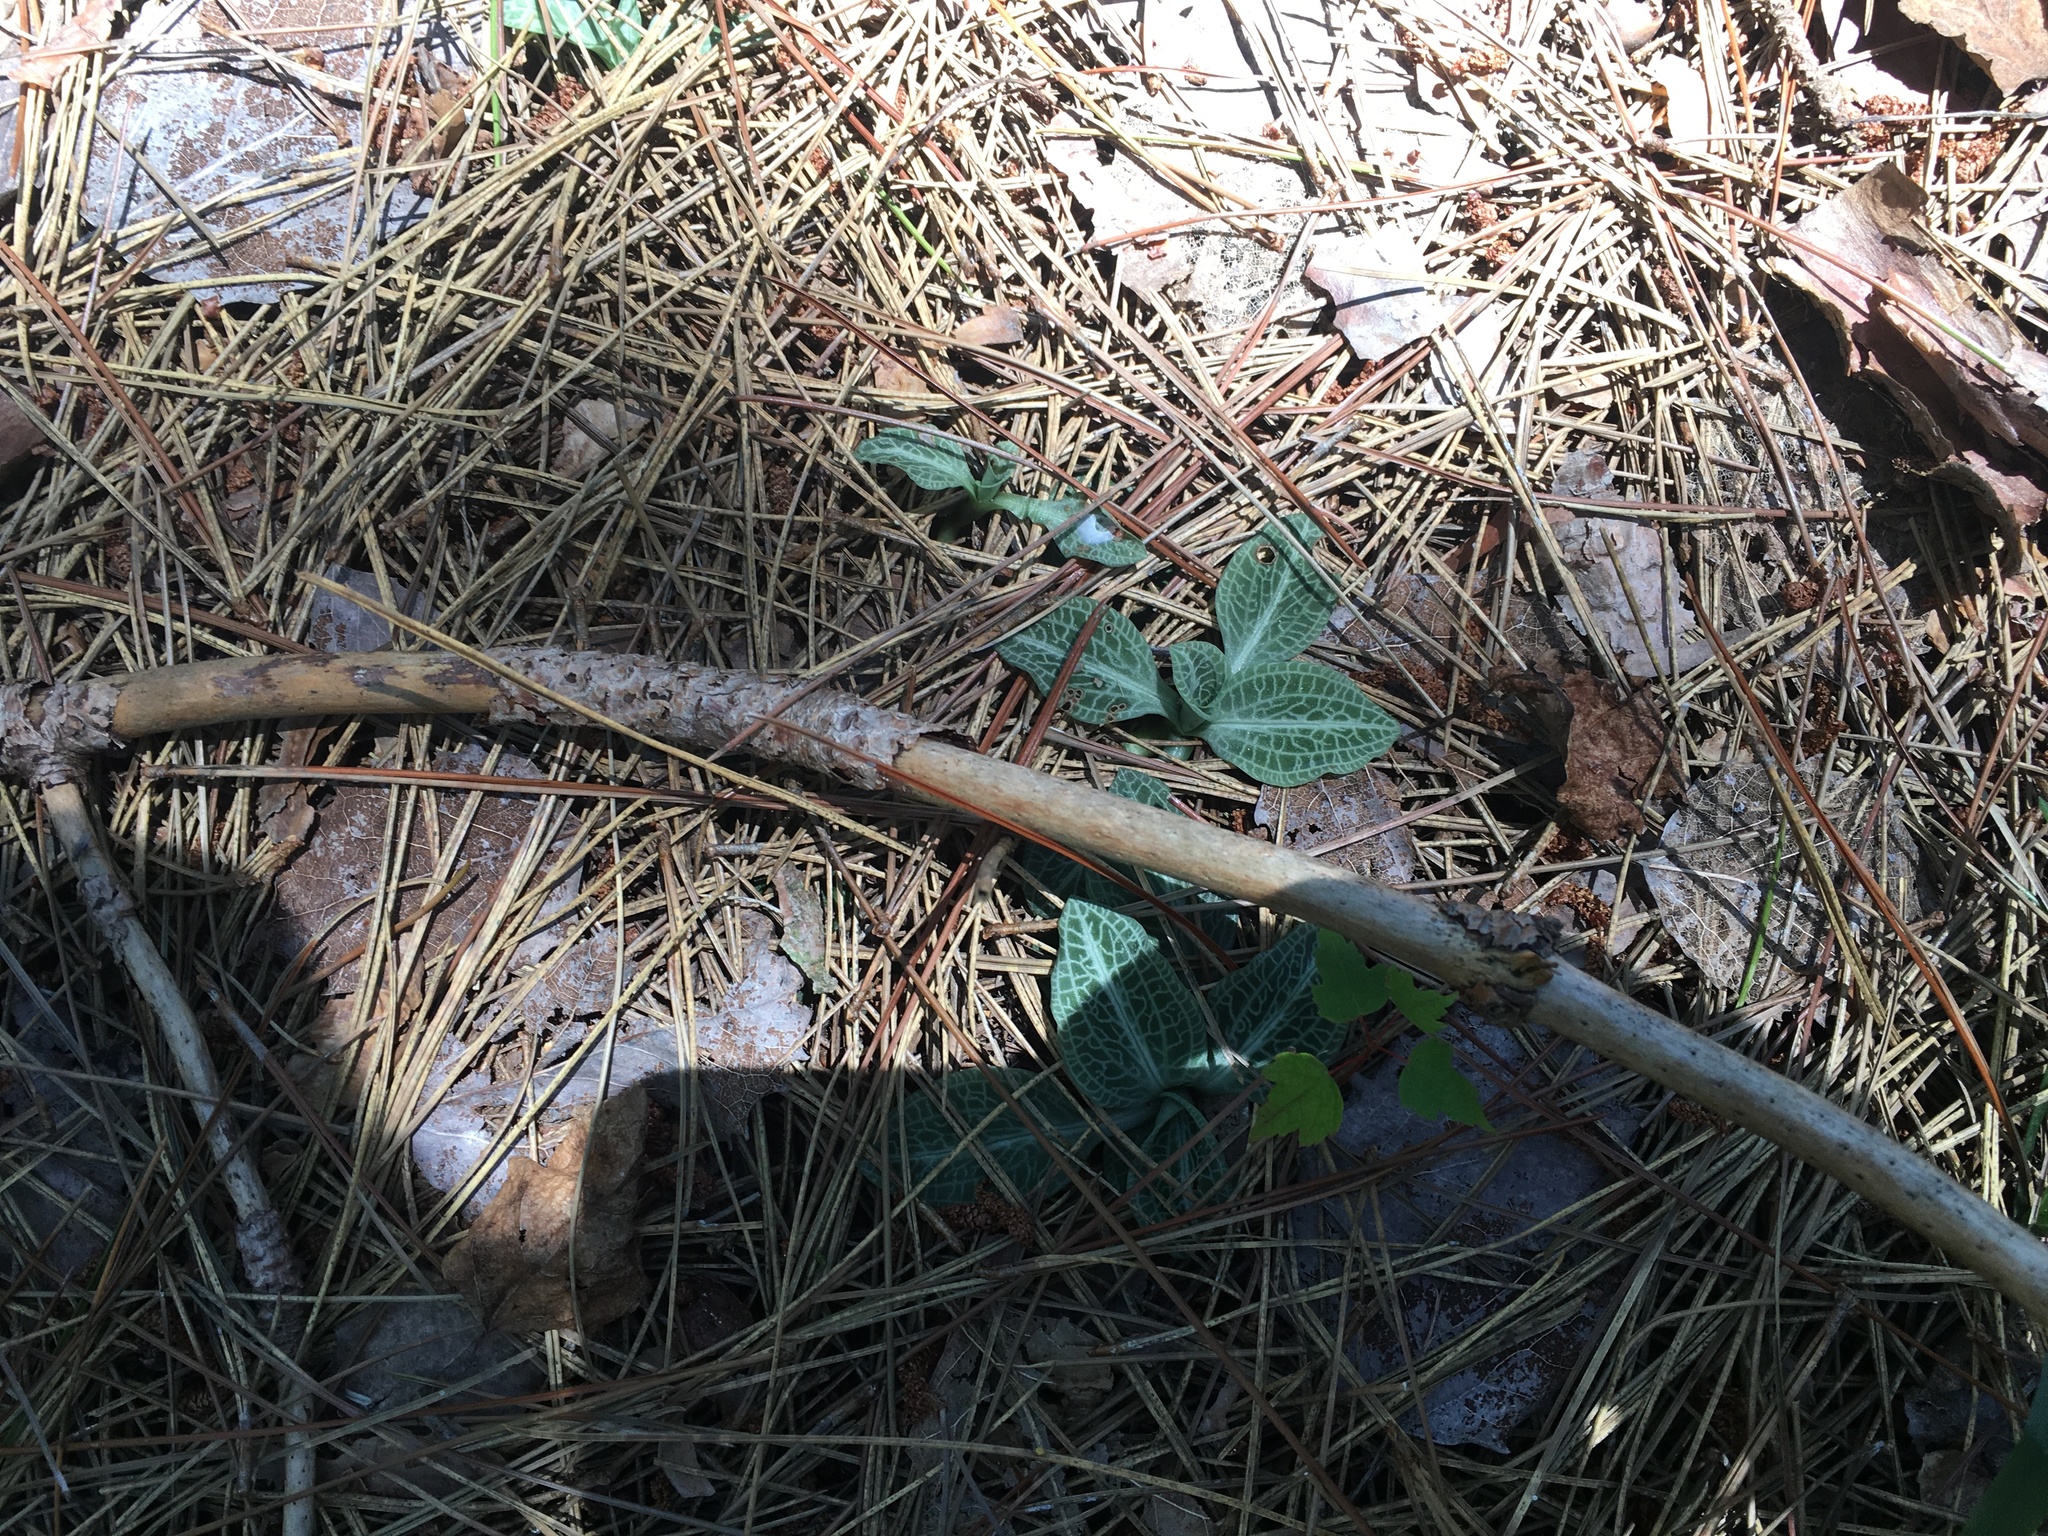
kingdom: Plantae
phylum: Tracheophyta
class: Liliopsida
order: Asparagales
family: Orchidaceae
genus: Goodyera
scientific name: Goodyera pubescens
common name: Downy rattlesnake-plantain
